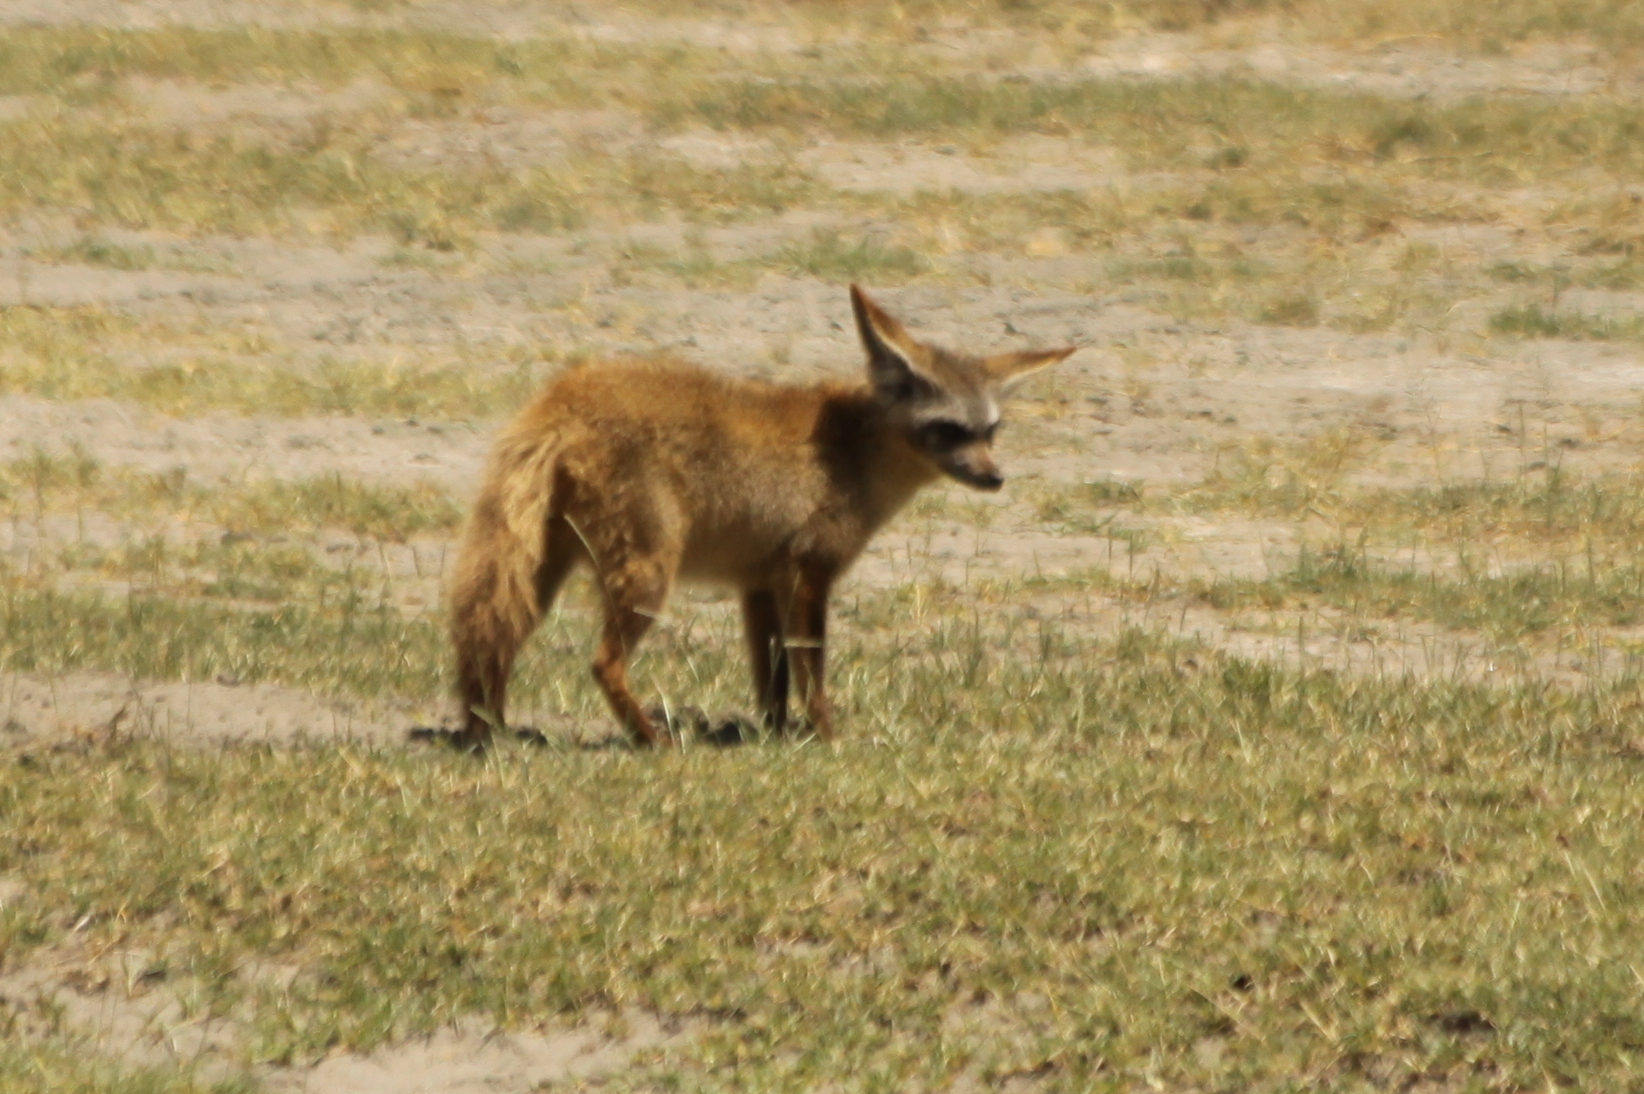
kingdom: Animalia
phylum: Chordata
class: Mammalia
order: Carnivora
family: Canidae
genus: Otocyon
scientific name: Otocyon megalotis
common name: Bat-eared fox
